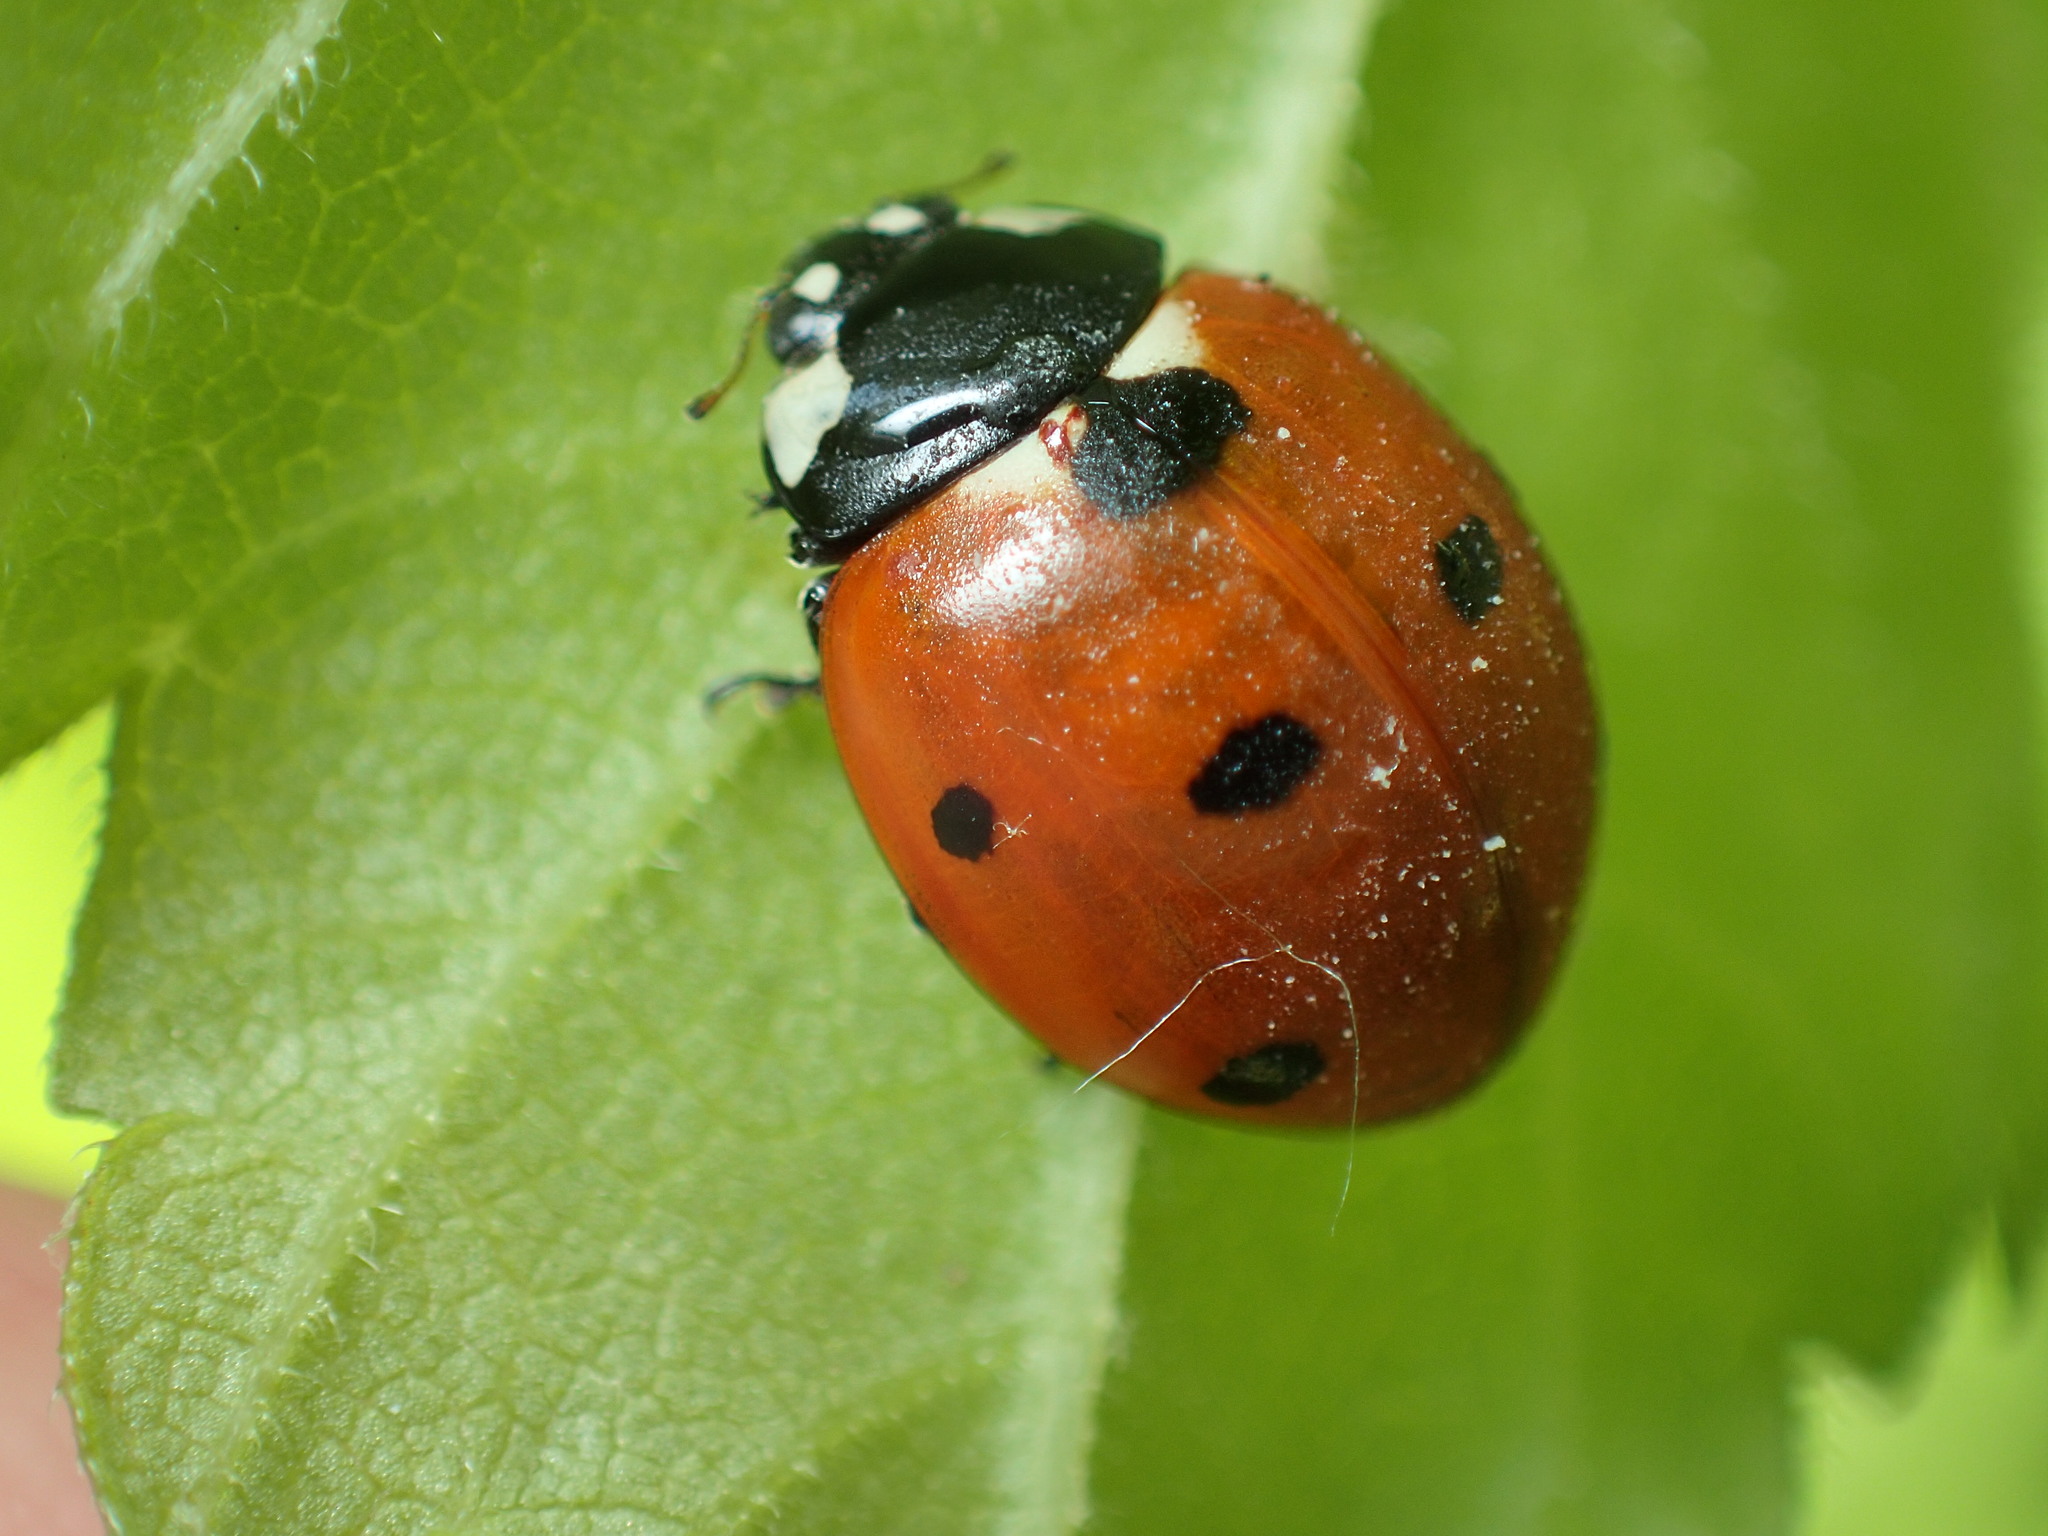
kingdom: Animalia
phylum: Arthropoda
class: Insecta
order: Coleoptera
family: Coccinellidae
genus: Coccinella
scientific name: Coccinella septempunctata
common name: Sevenspotted lady beetle
